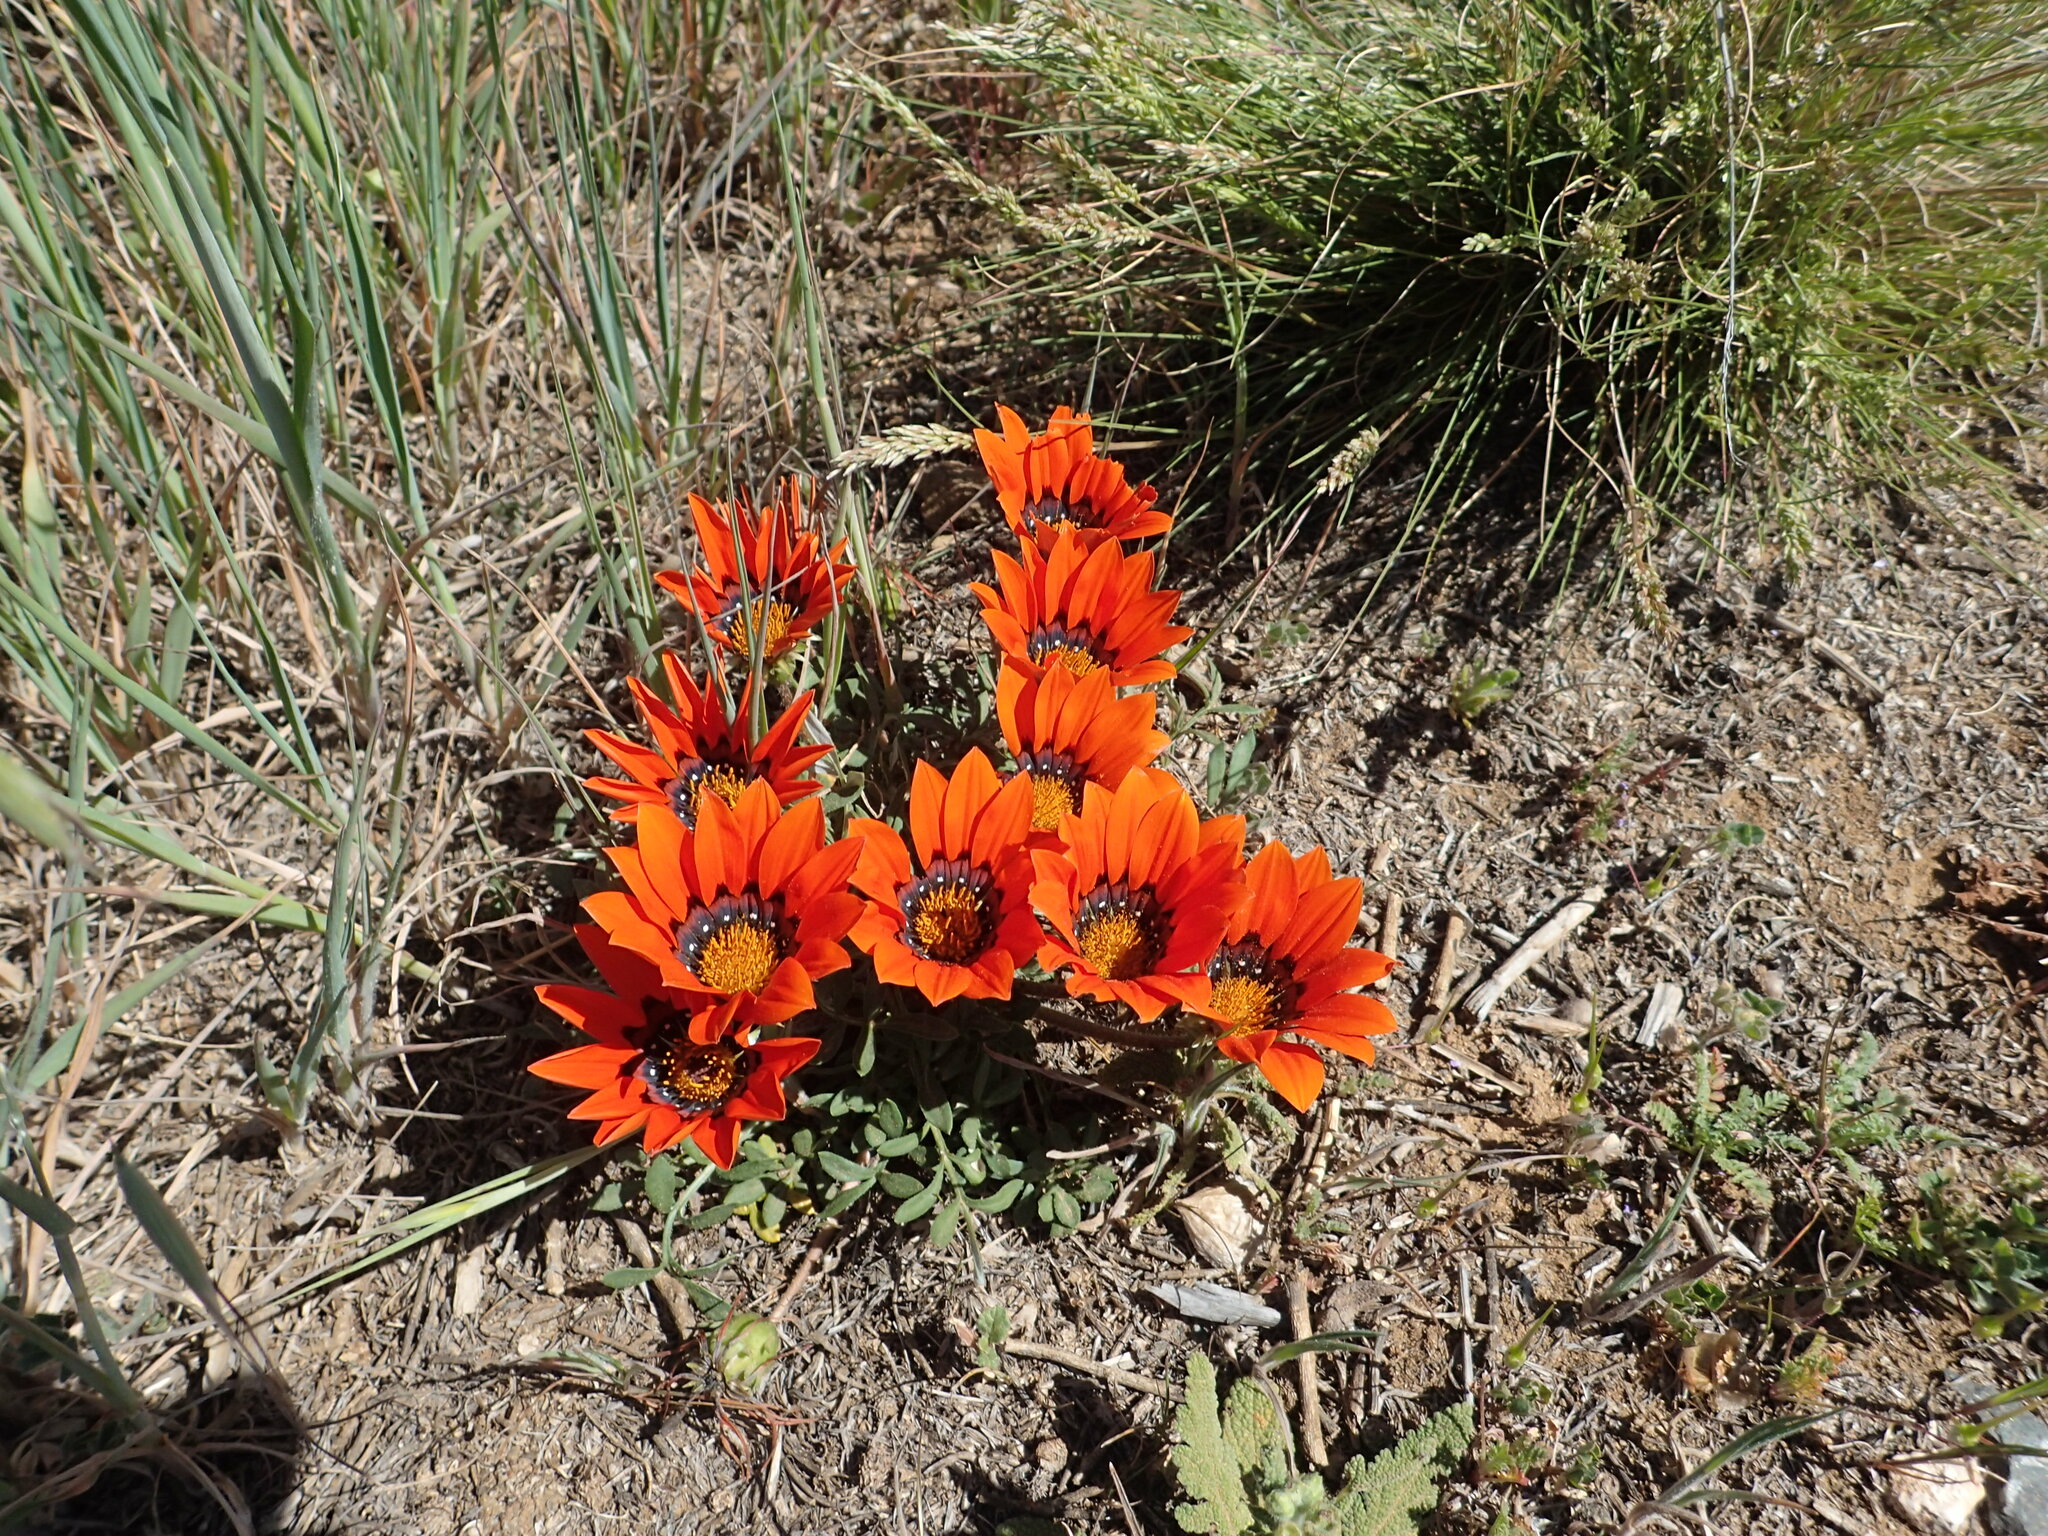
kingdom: Plantae
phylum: Tracheophyta
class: Magnoliopsida
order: Asterales
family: Asteraceae
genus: Gazania
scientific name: Gazania rigida
